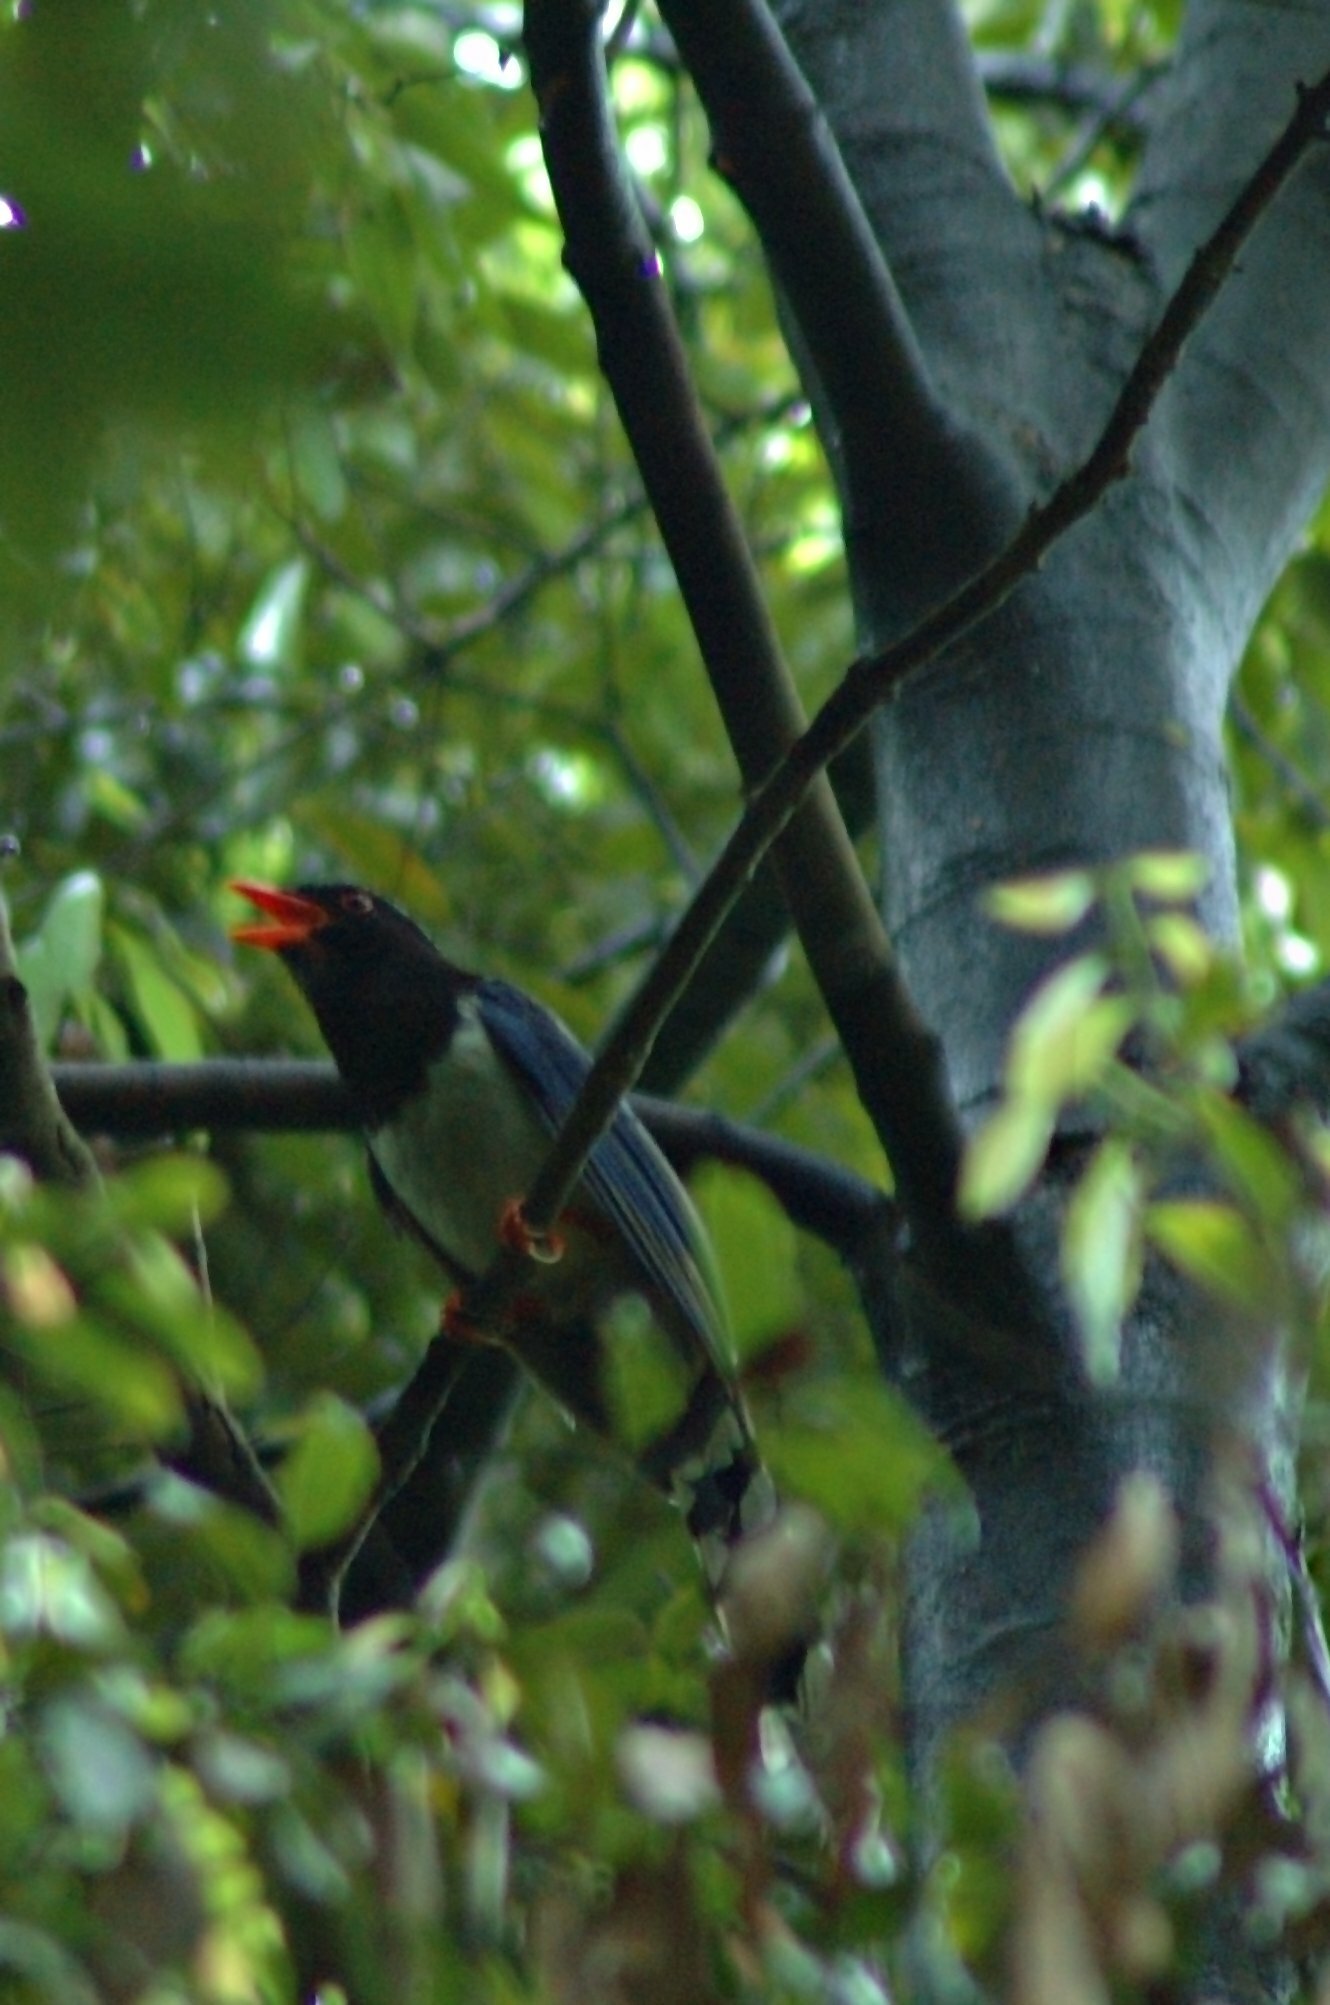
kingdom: Animalia
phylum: Chordata
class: Aves
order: Passeriformes
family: Corvidae
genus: Urocissa
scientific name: Urocissa erythroryncha
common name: Red-billed blue magpie
